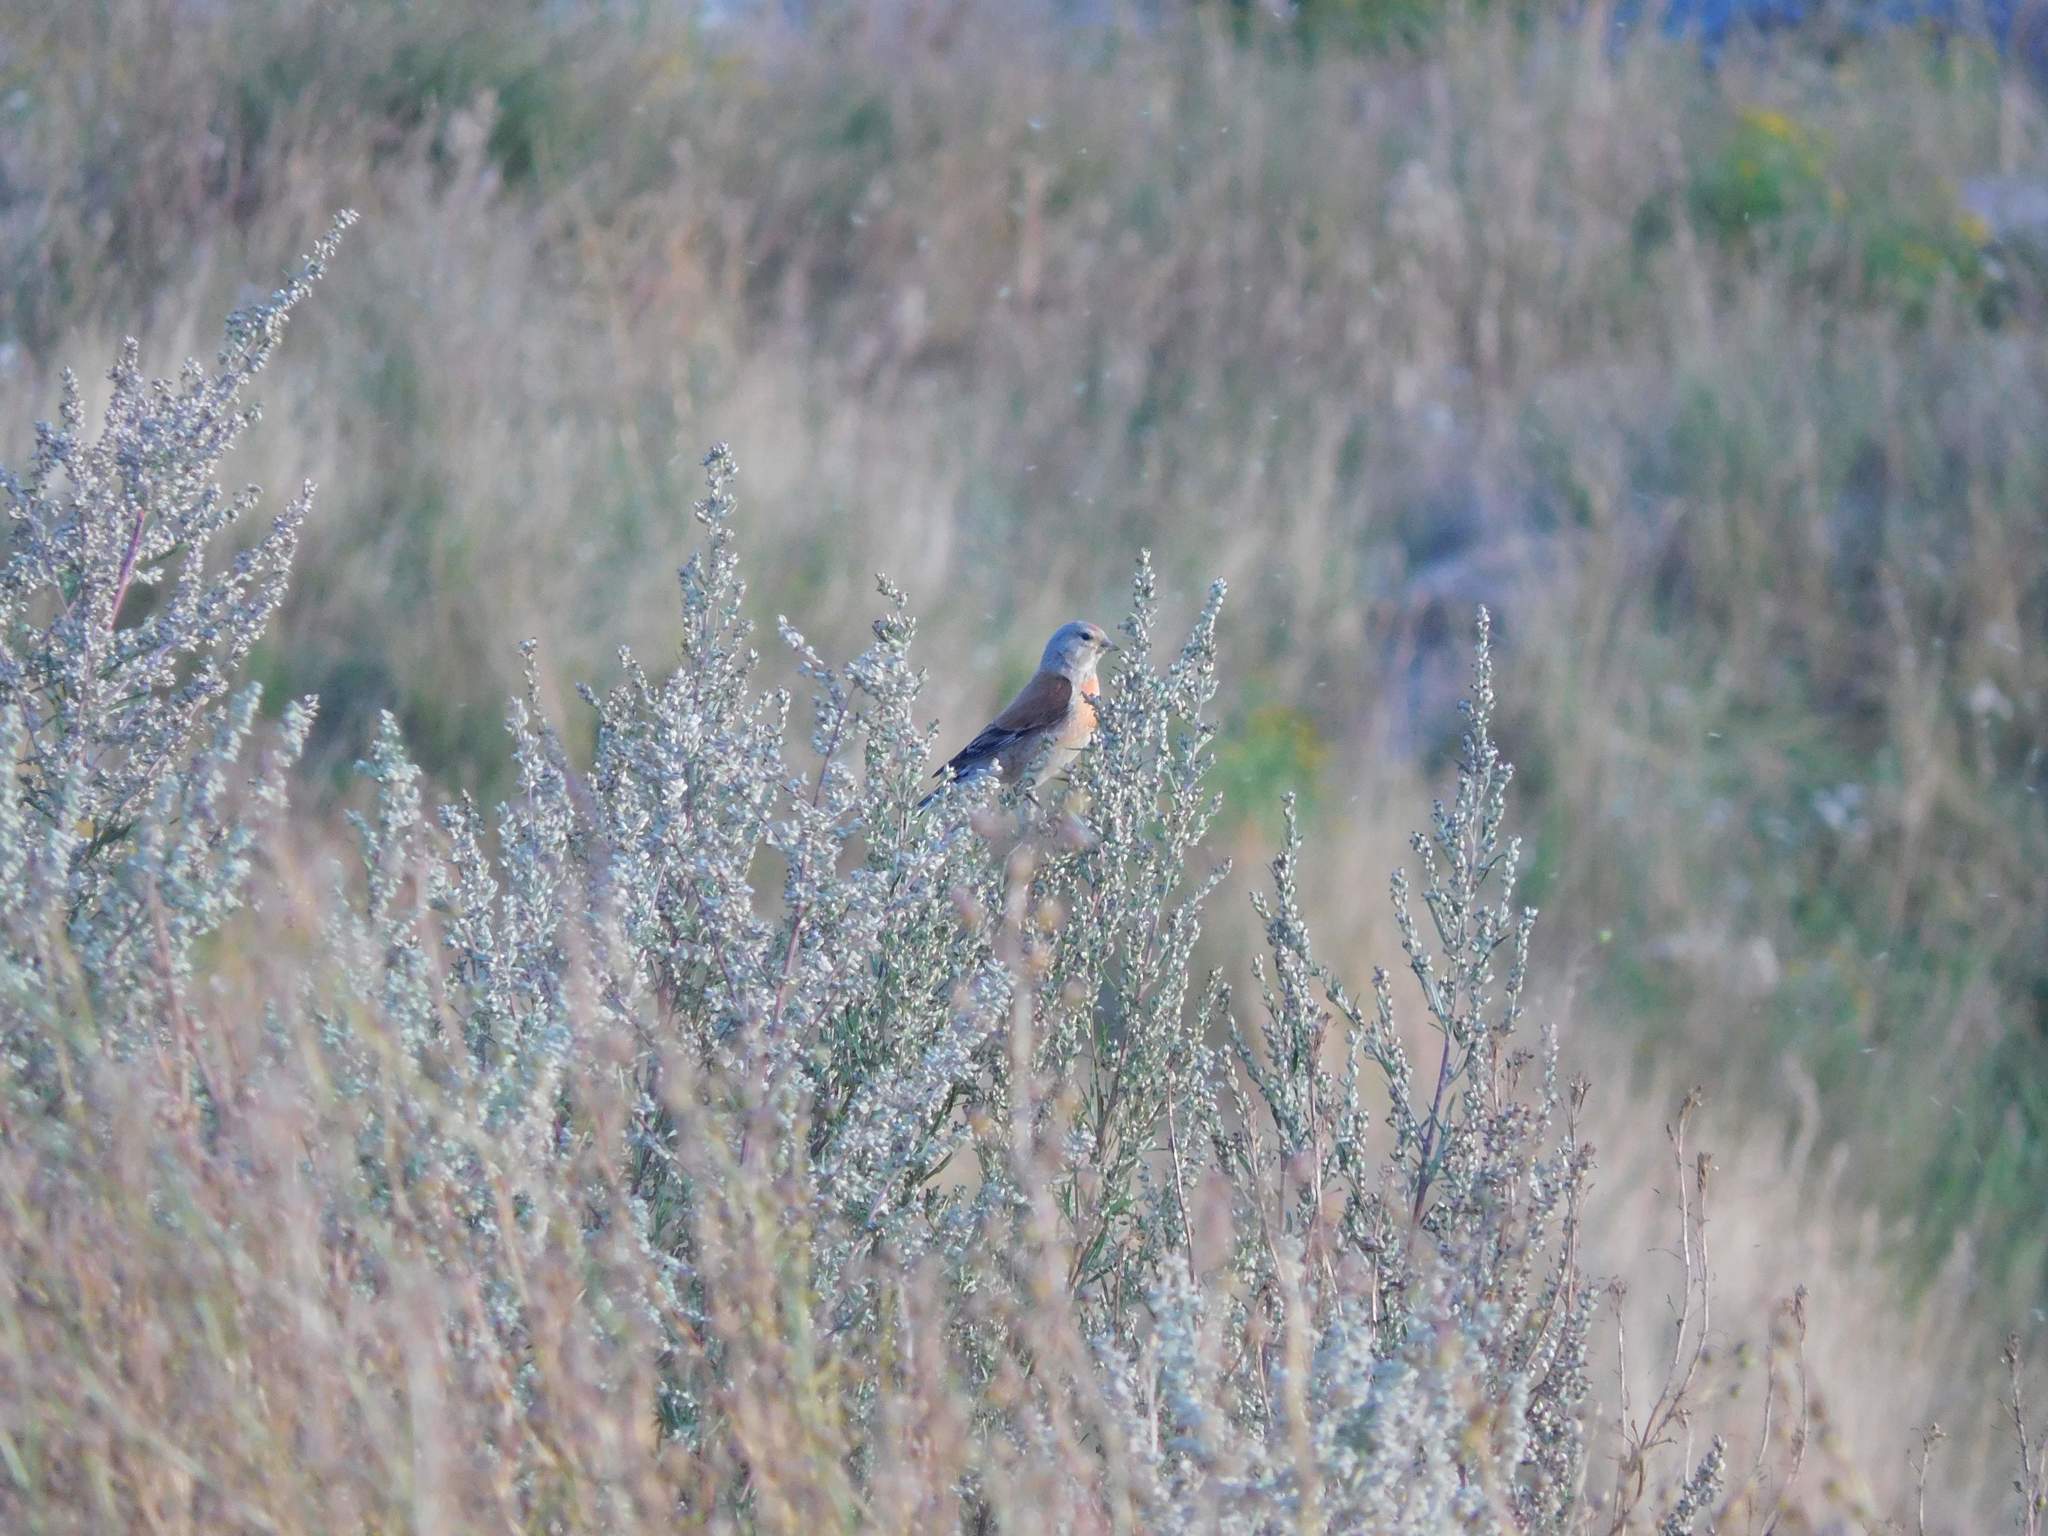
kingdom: Animalia
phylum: Chordata
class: Aves
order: Passeriformes
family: Fringillidae
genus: Linaria
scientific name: Linaria cannabina
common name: Common linnet
